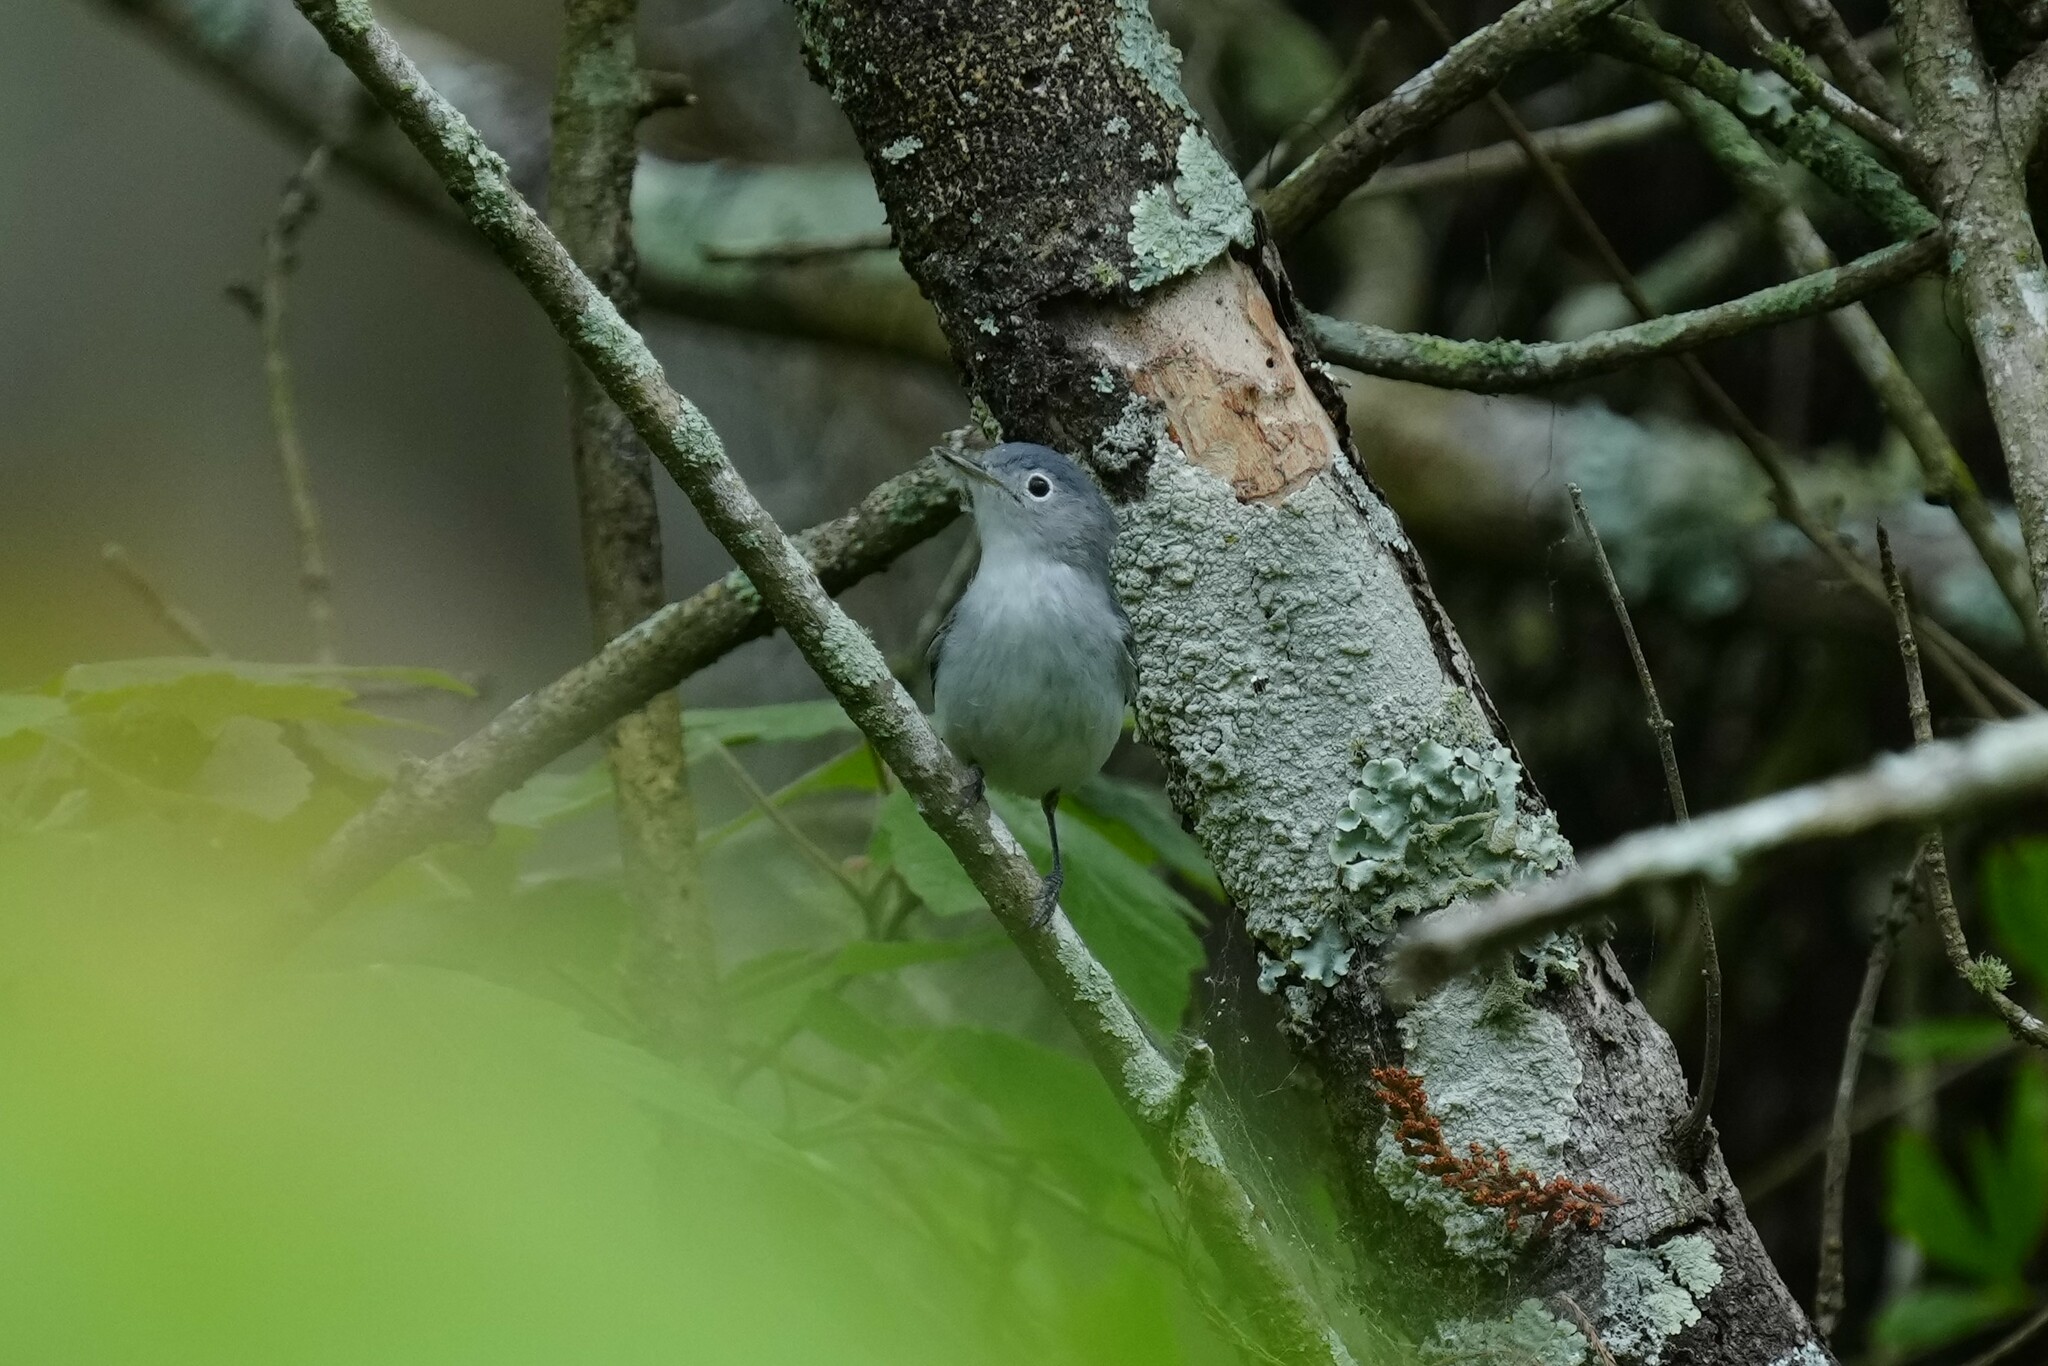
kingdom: Animalia
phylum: Chordata
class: Aves
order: Passeriformes
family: Polioptilidae
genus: Polioptila
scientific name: Polioptila caerulea
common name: Blue-gray gnatcatcher
